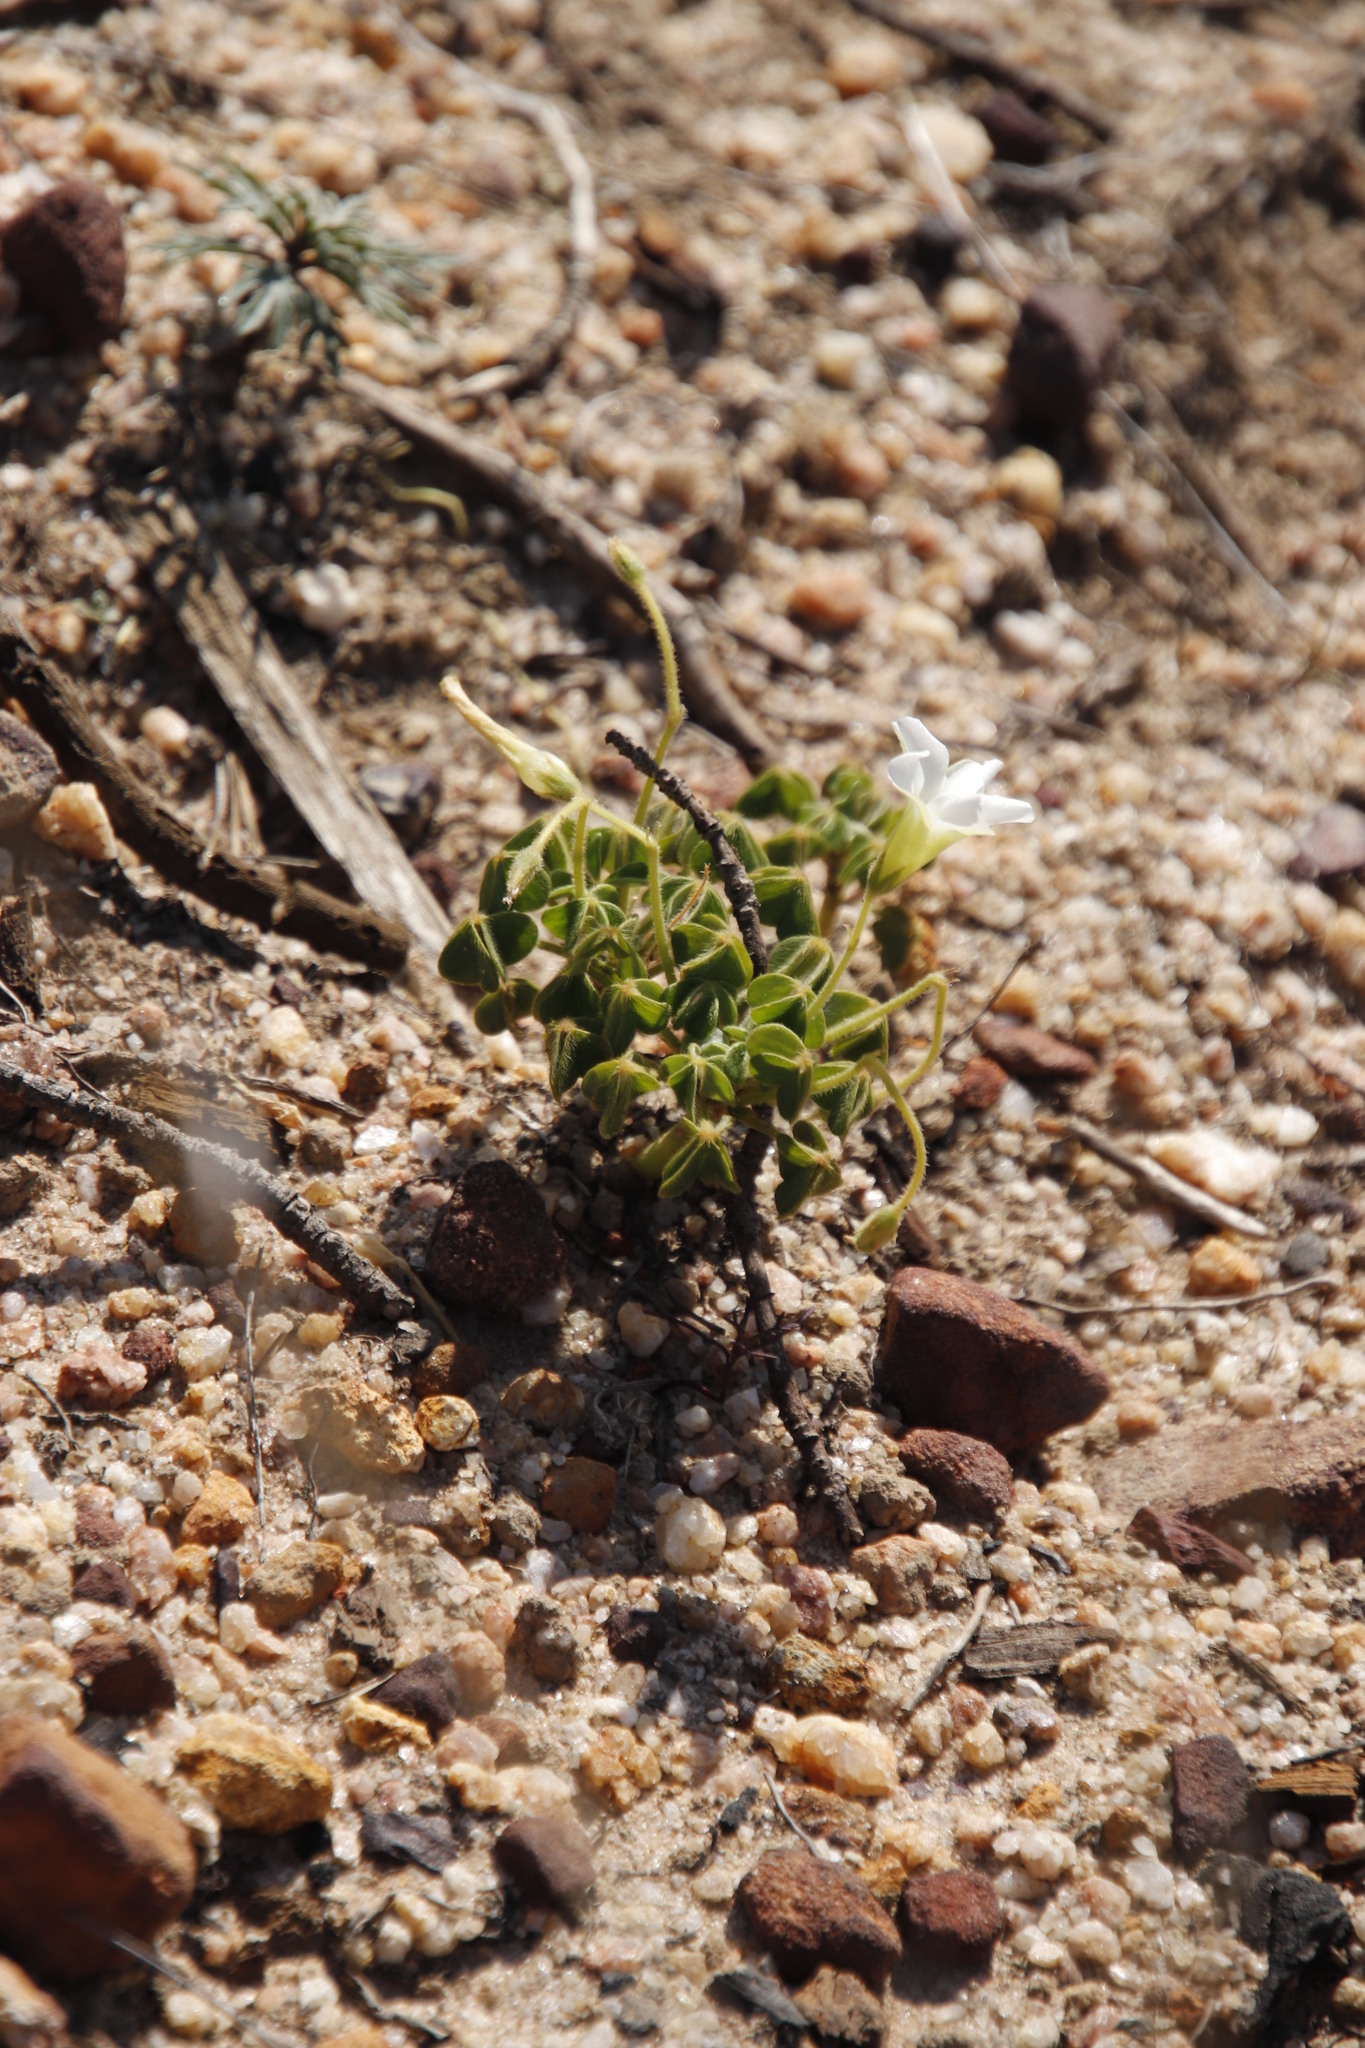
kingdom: Plantae
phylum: Tracheophyta
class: Magnoliopsida
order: Oxalidales
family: Oxalidaceae
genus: Oxalis
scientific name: Oxalis lanata
